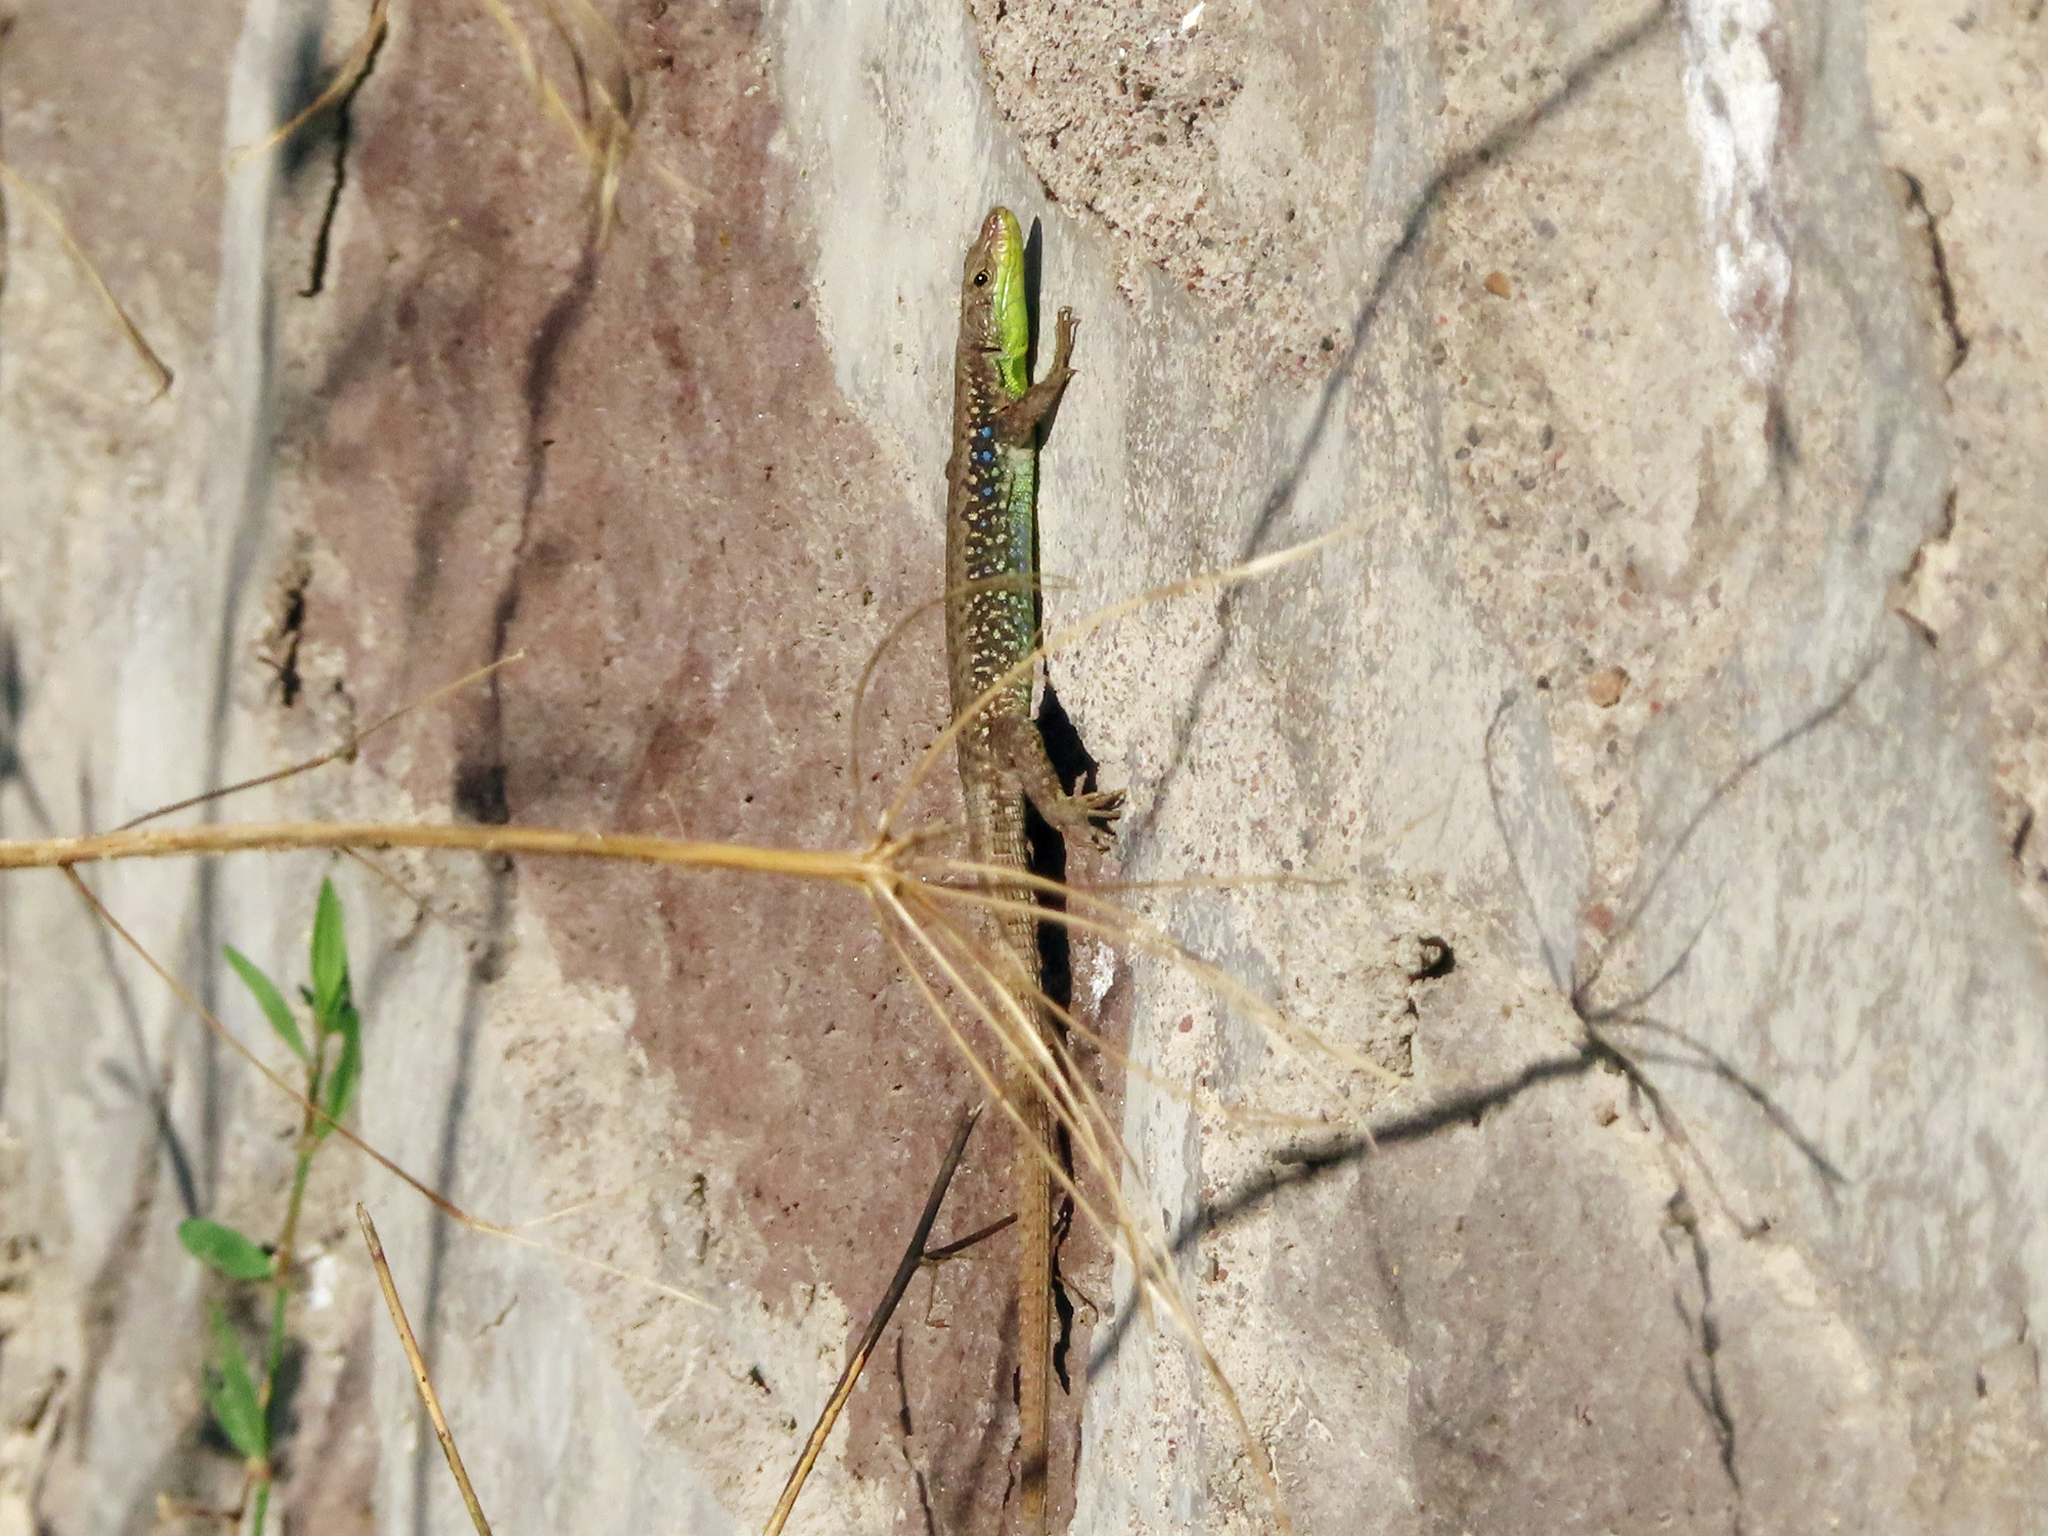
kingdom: Animalia
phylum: Chordata
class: Squamata
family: Lacertidae
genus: Darevskia
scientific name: Darevskia raddei
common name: Radde's lizard
